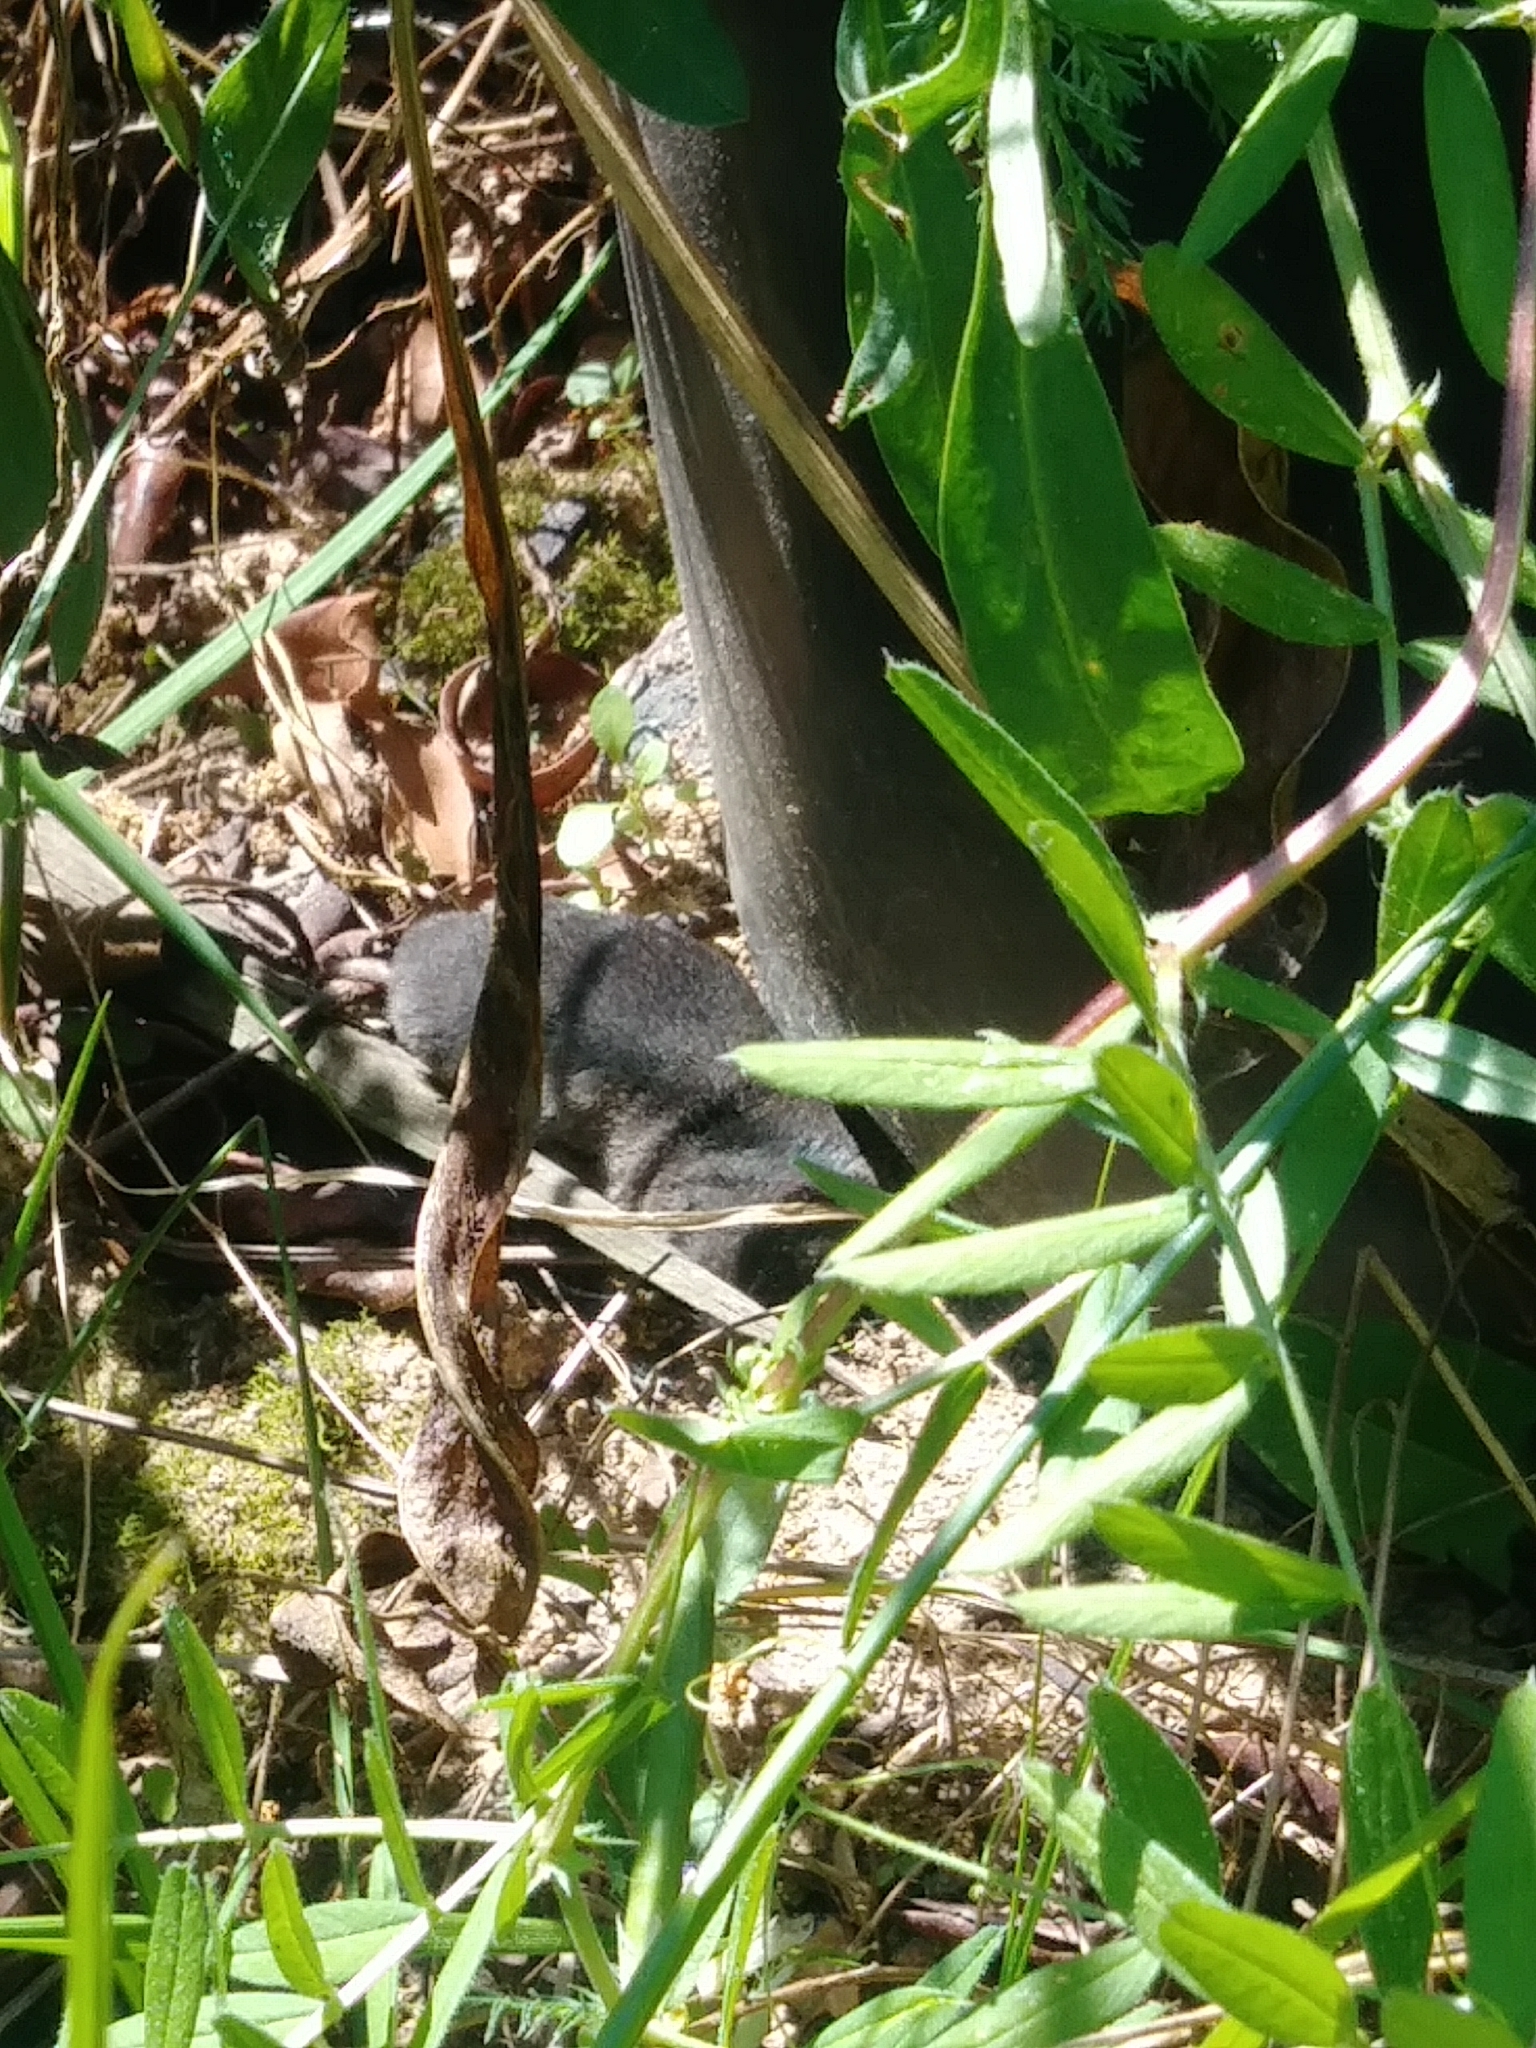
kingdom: Animalia
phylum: Chordata
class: Mammalia
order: Soricomorpha
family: Soricidae
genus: Blarina
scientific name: Blarina carolinensis
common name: Southern short-tailed shrew
